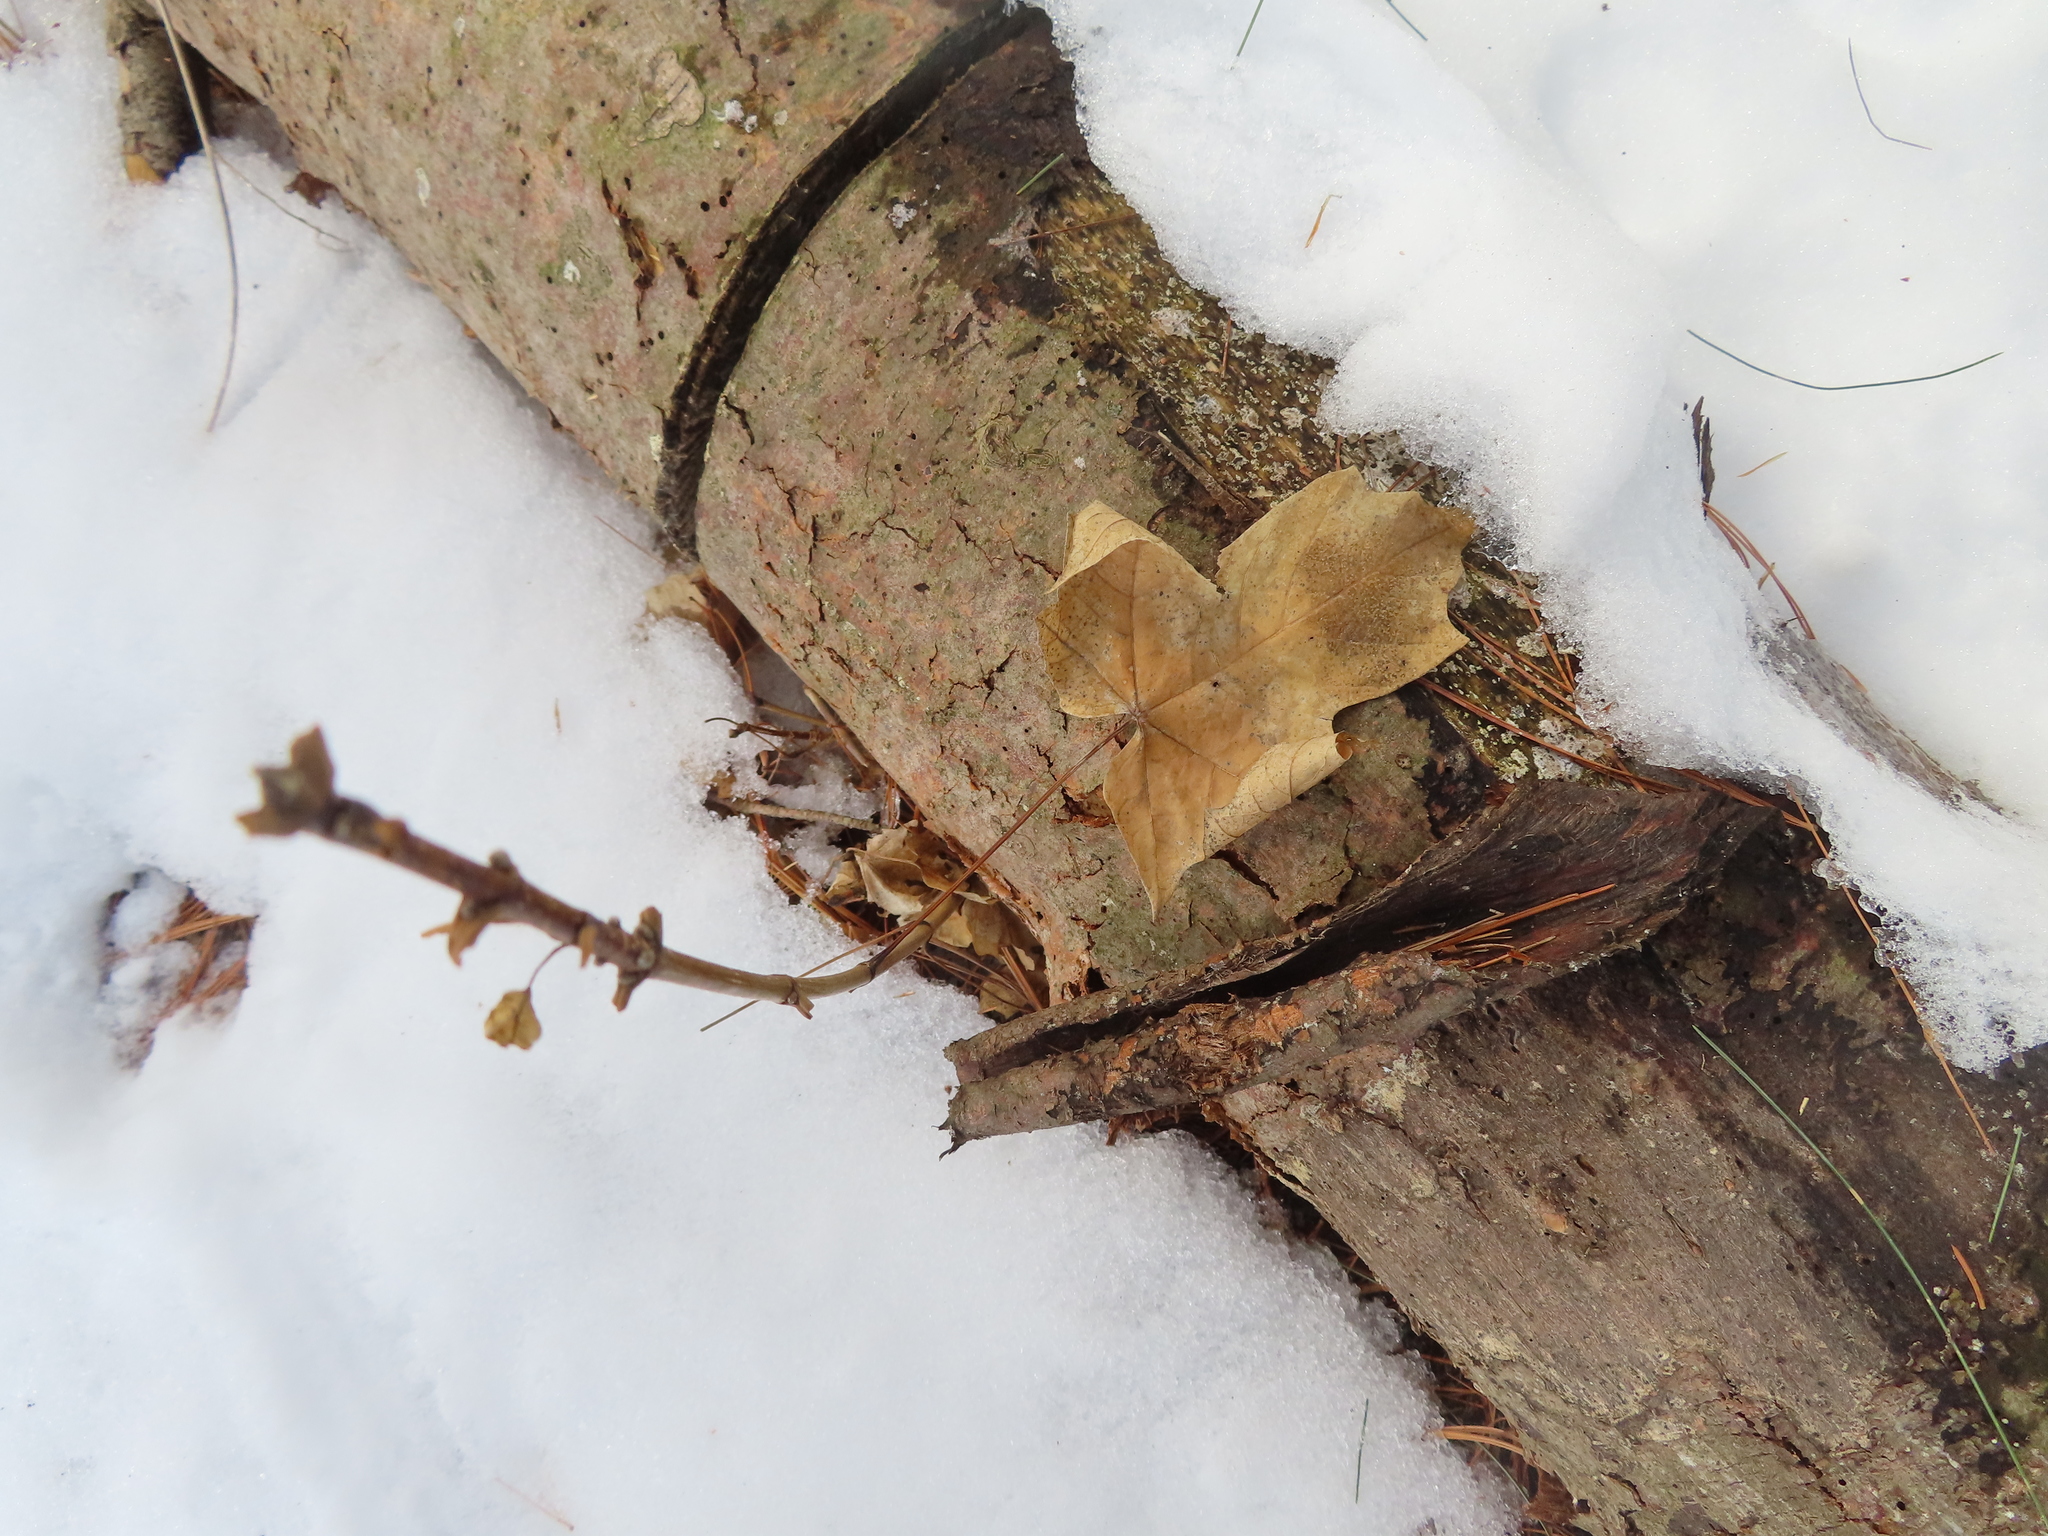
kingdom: Plantae
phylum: Tracheophyta
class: Magnoliopsida
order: Sapindales
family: Sapindaceae
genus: Acer
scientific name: Acer saccharum
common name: Sugar maple
